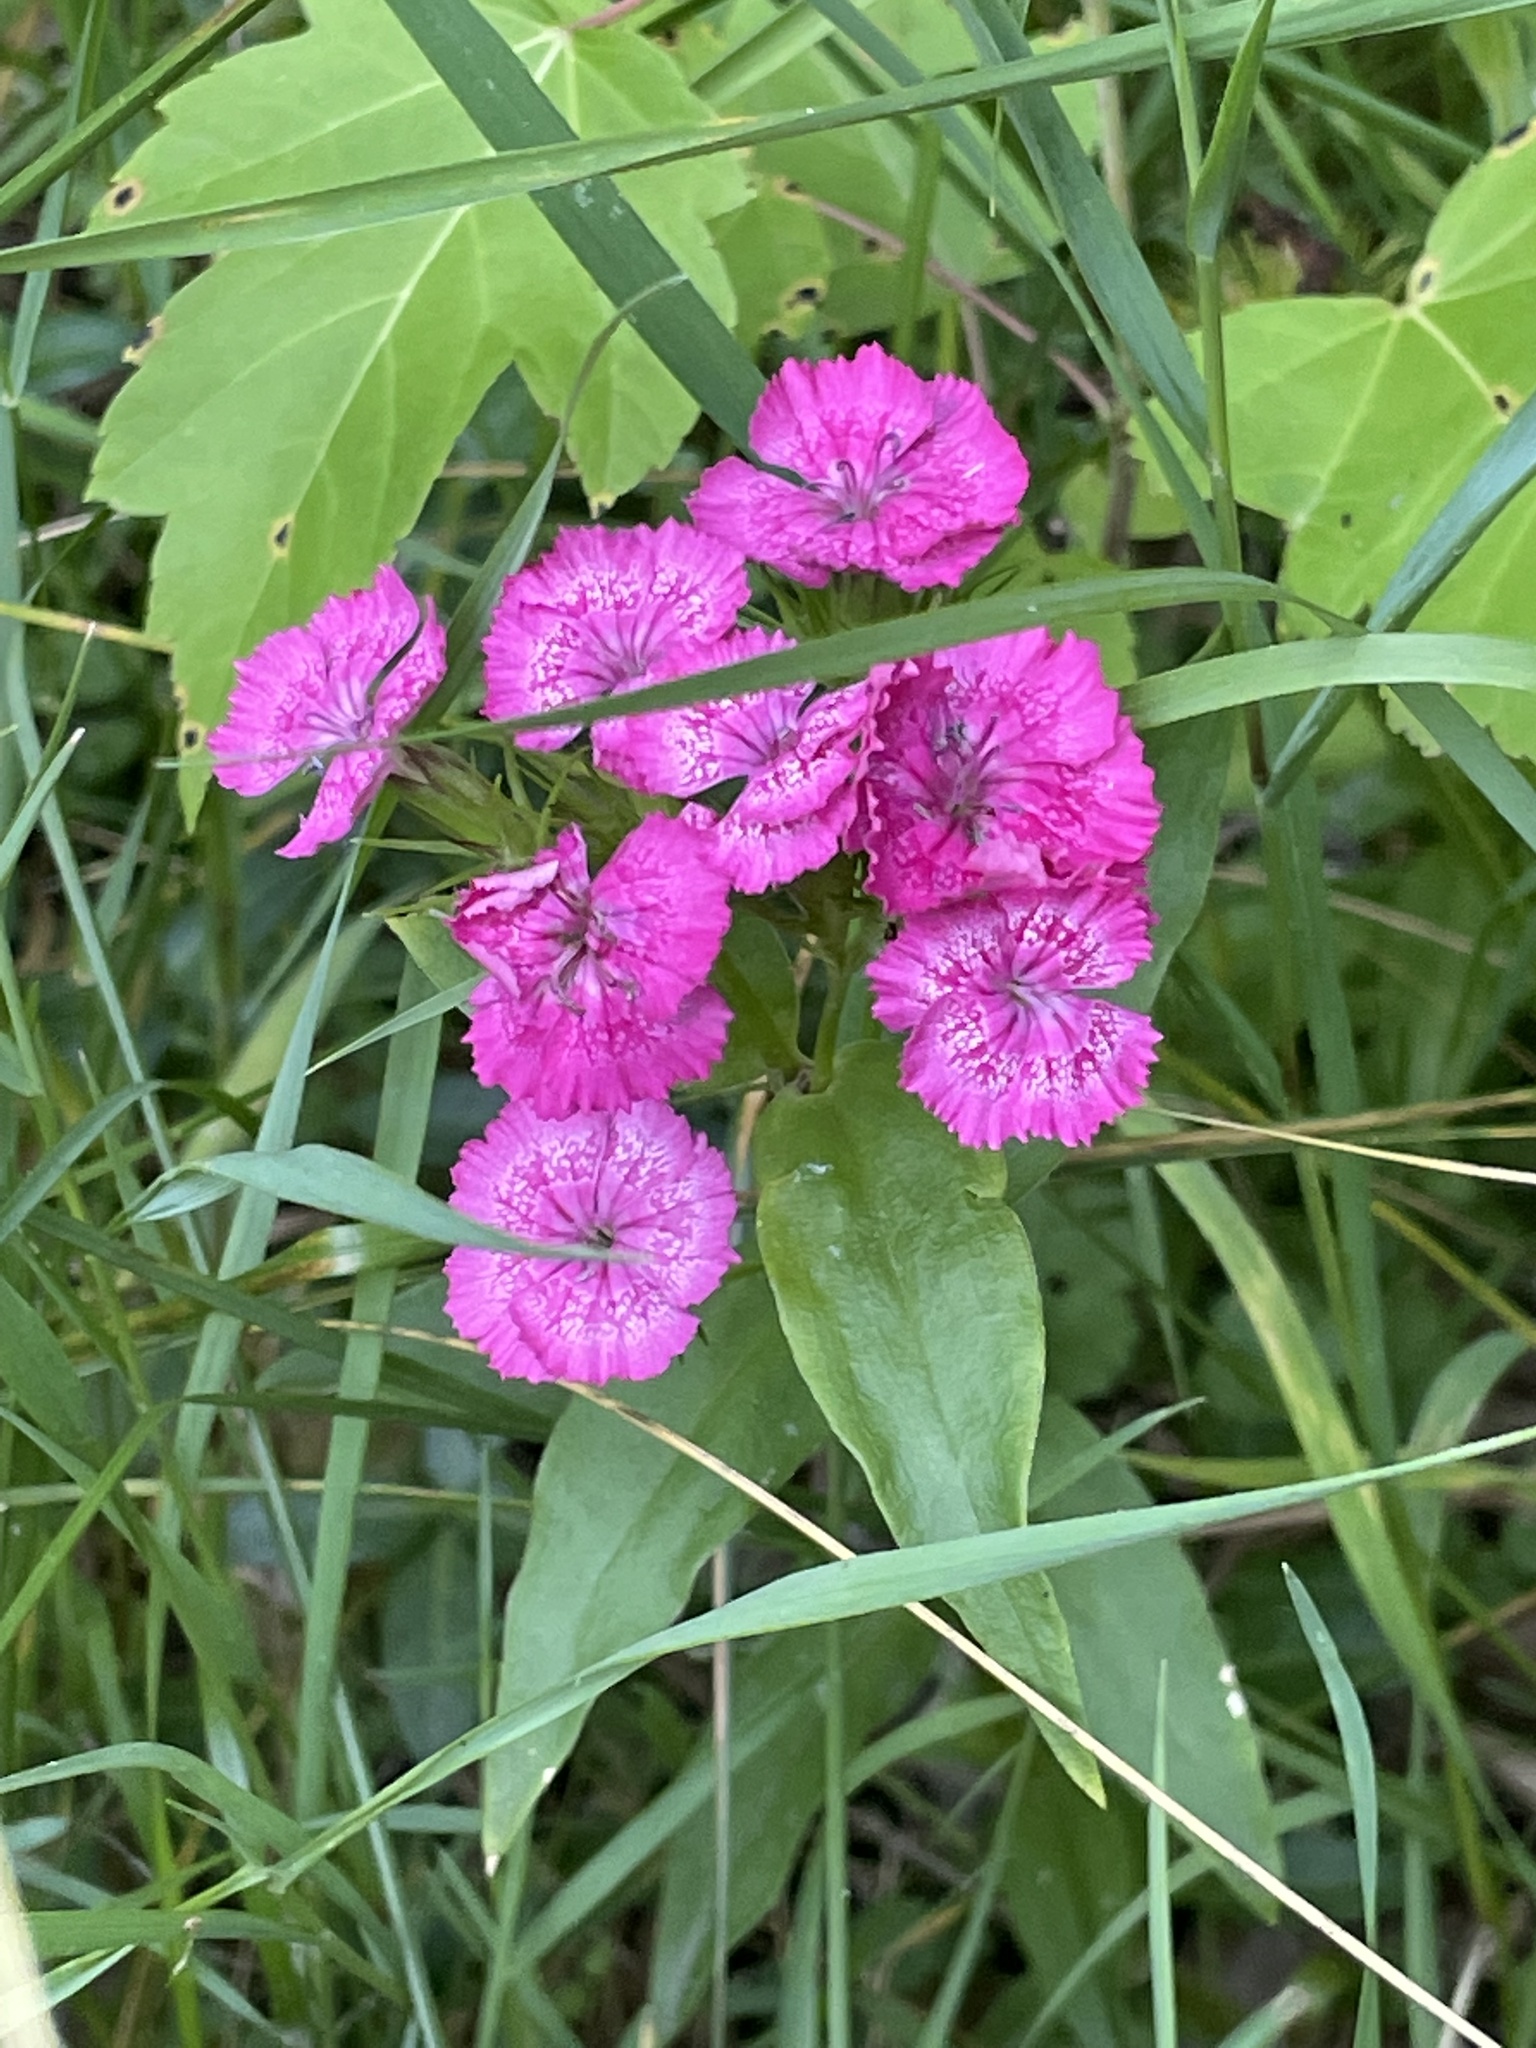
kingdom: Plantae
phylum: Tracheophyta
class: Magnoliopsida
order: Caryophyllales
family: Caryophyllaceae
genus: Dianthus
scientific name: Dianthus
